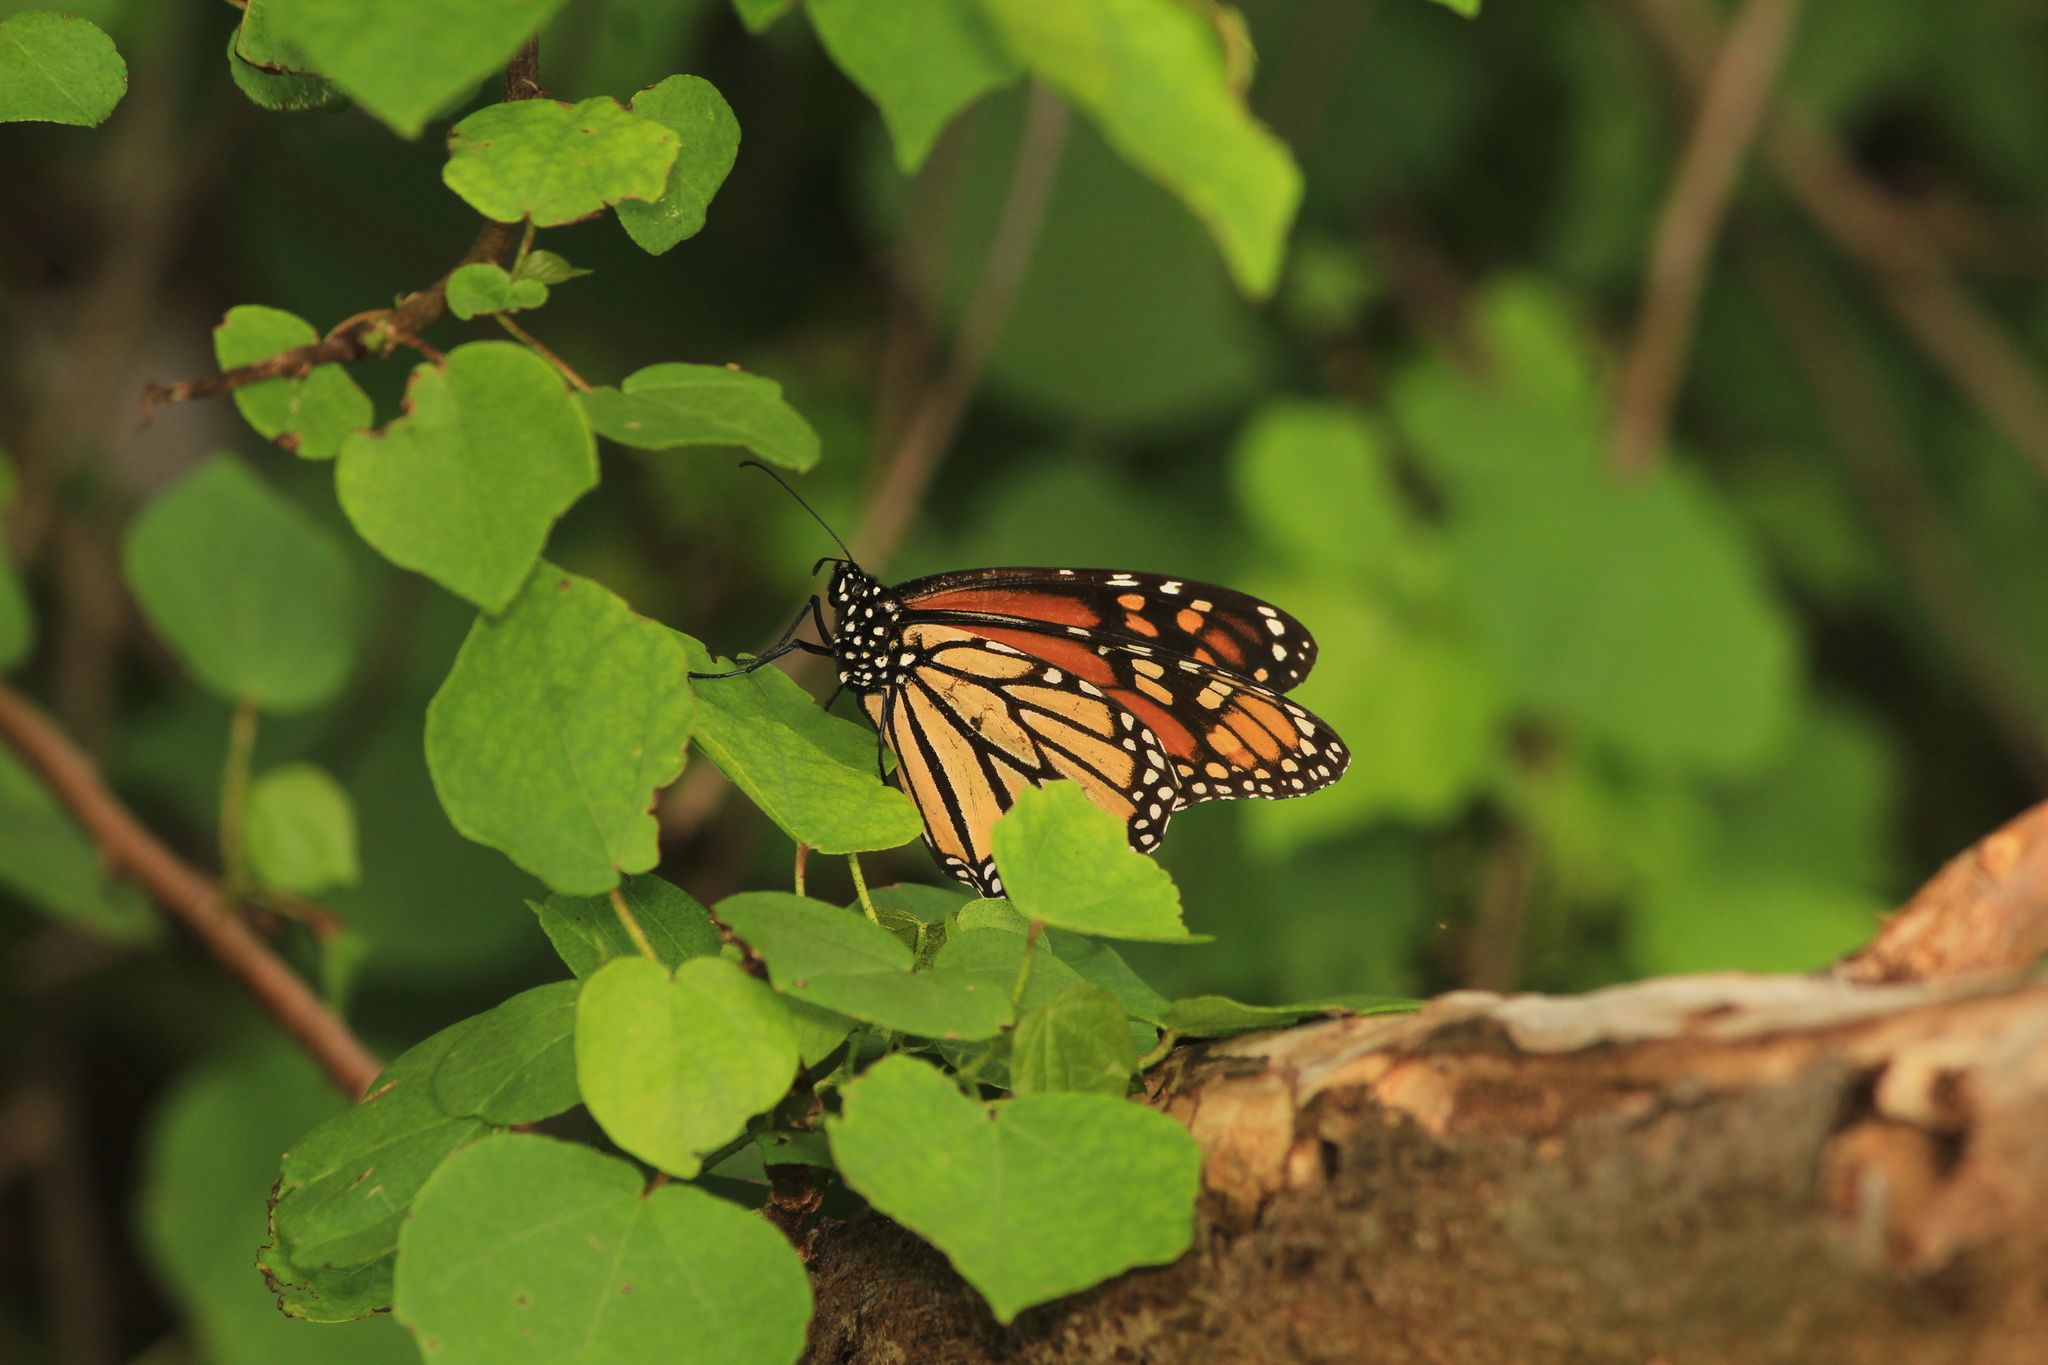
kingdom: Animalia
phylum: Arthropoda
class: Insecta
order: Lepidoptera
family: Nymphalidae
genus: Danaus
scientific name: Danaus plexippus
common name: Monarch
